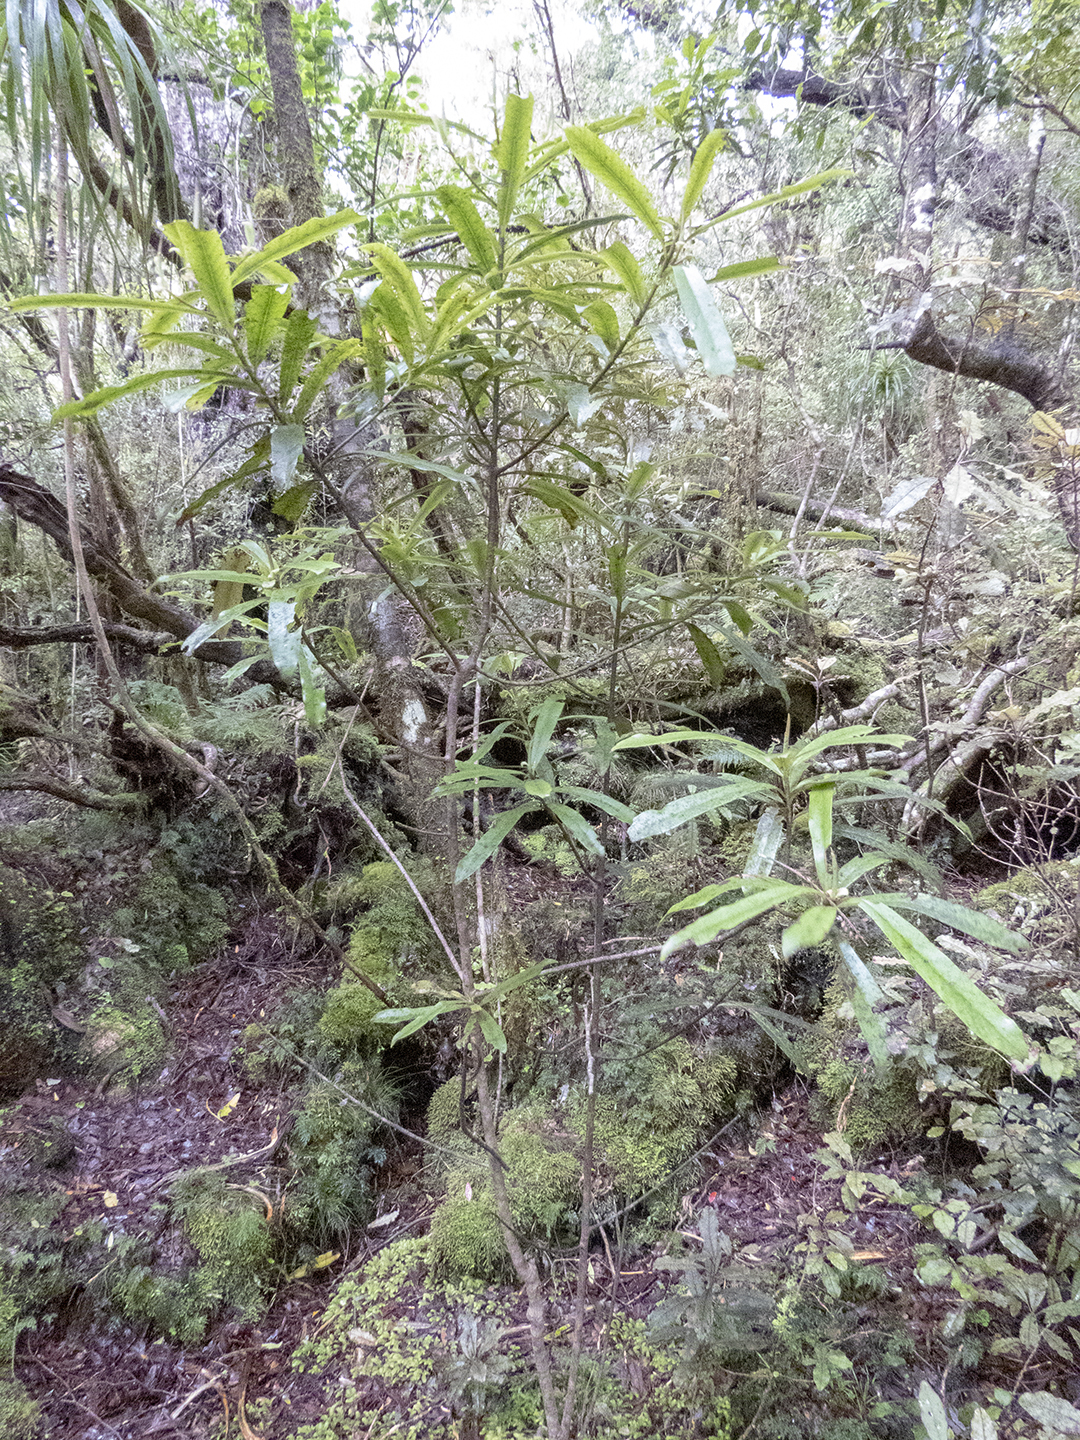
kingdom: Plantae
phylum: Tracheophyta
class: Magnoliopsida
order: Ericales
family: Primulaceae
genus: Myrsine
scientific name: Myrsine salicina
